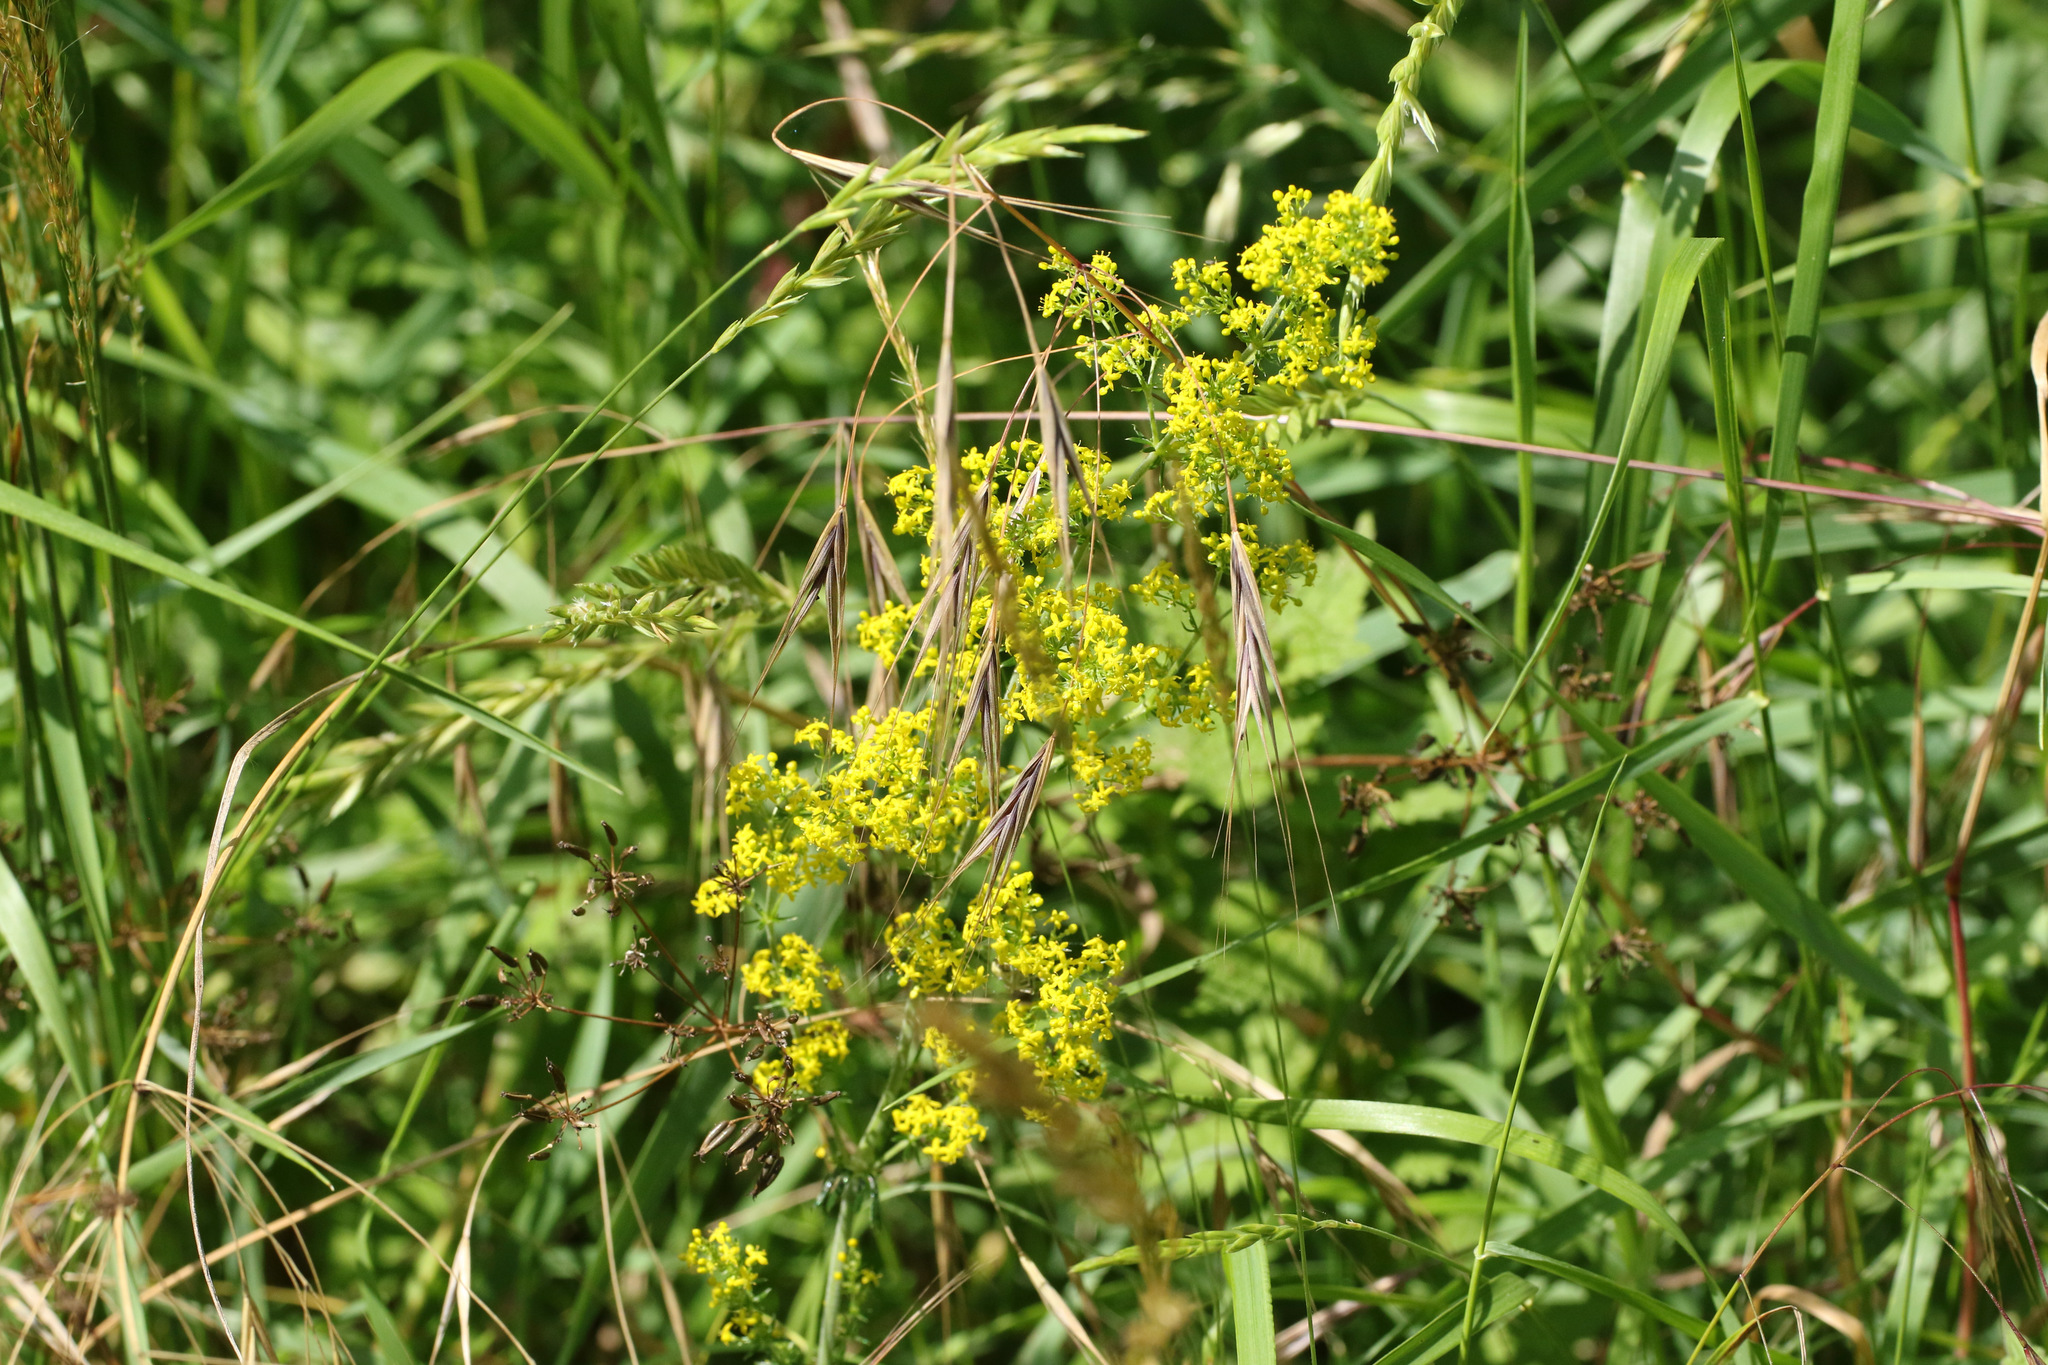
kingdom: Plantae
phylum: Tracheophyta
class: Magnoliopsida
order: Gentianales
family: Rubiaceae
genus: Galium
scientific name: Galium verum
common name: Lady's bedstraw
